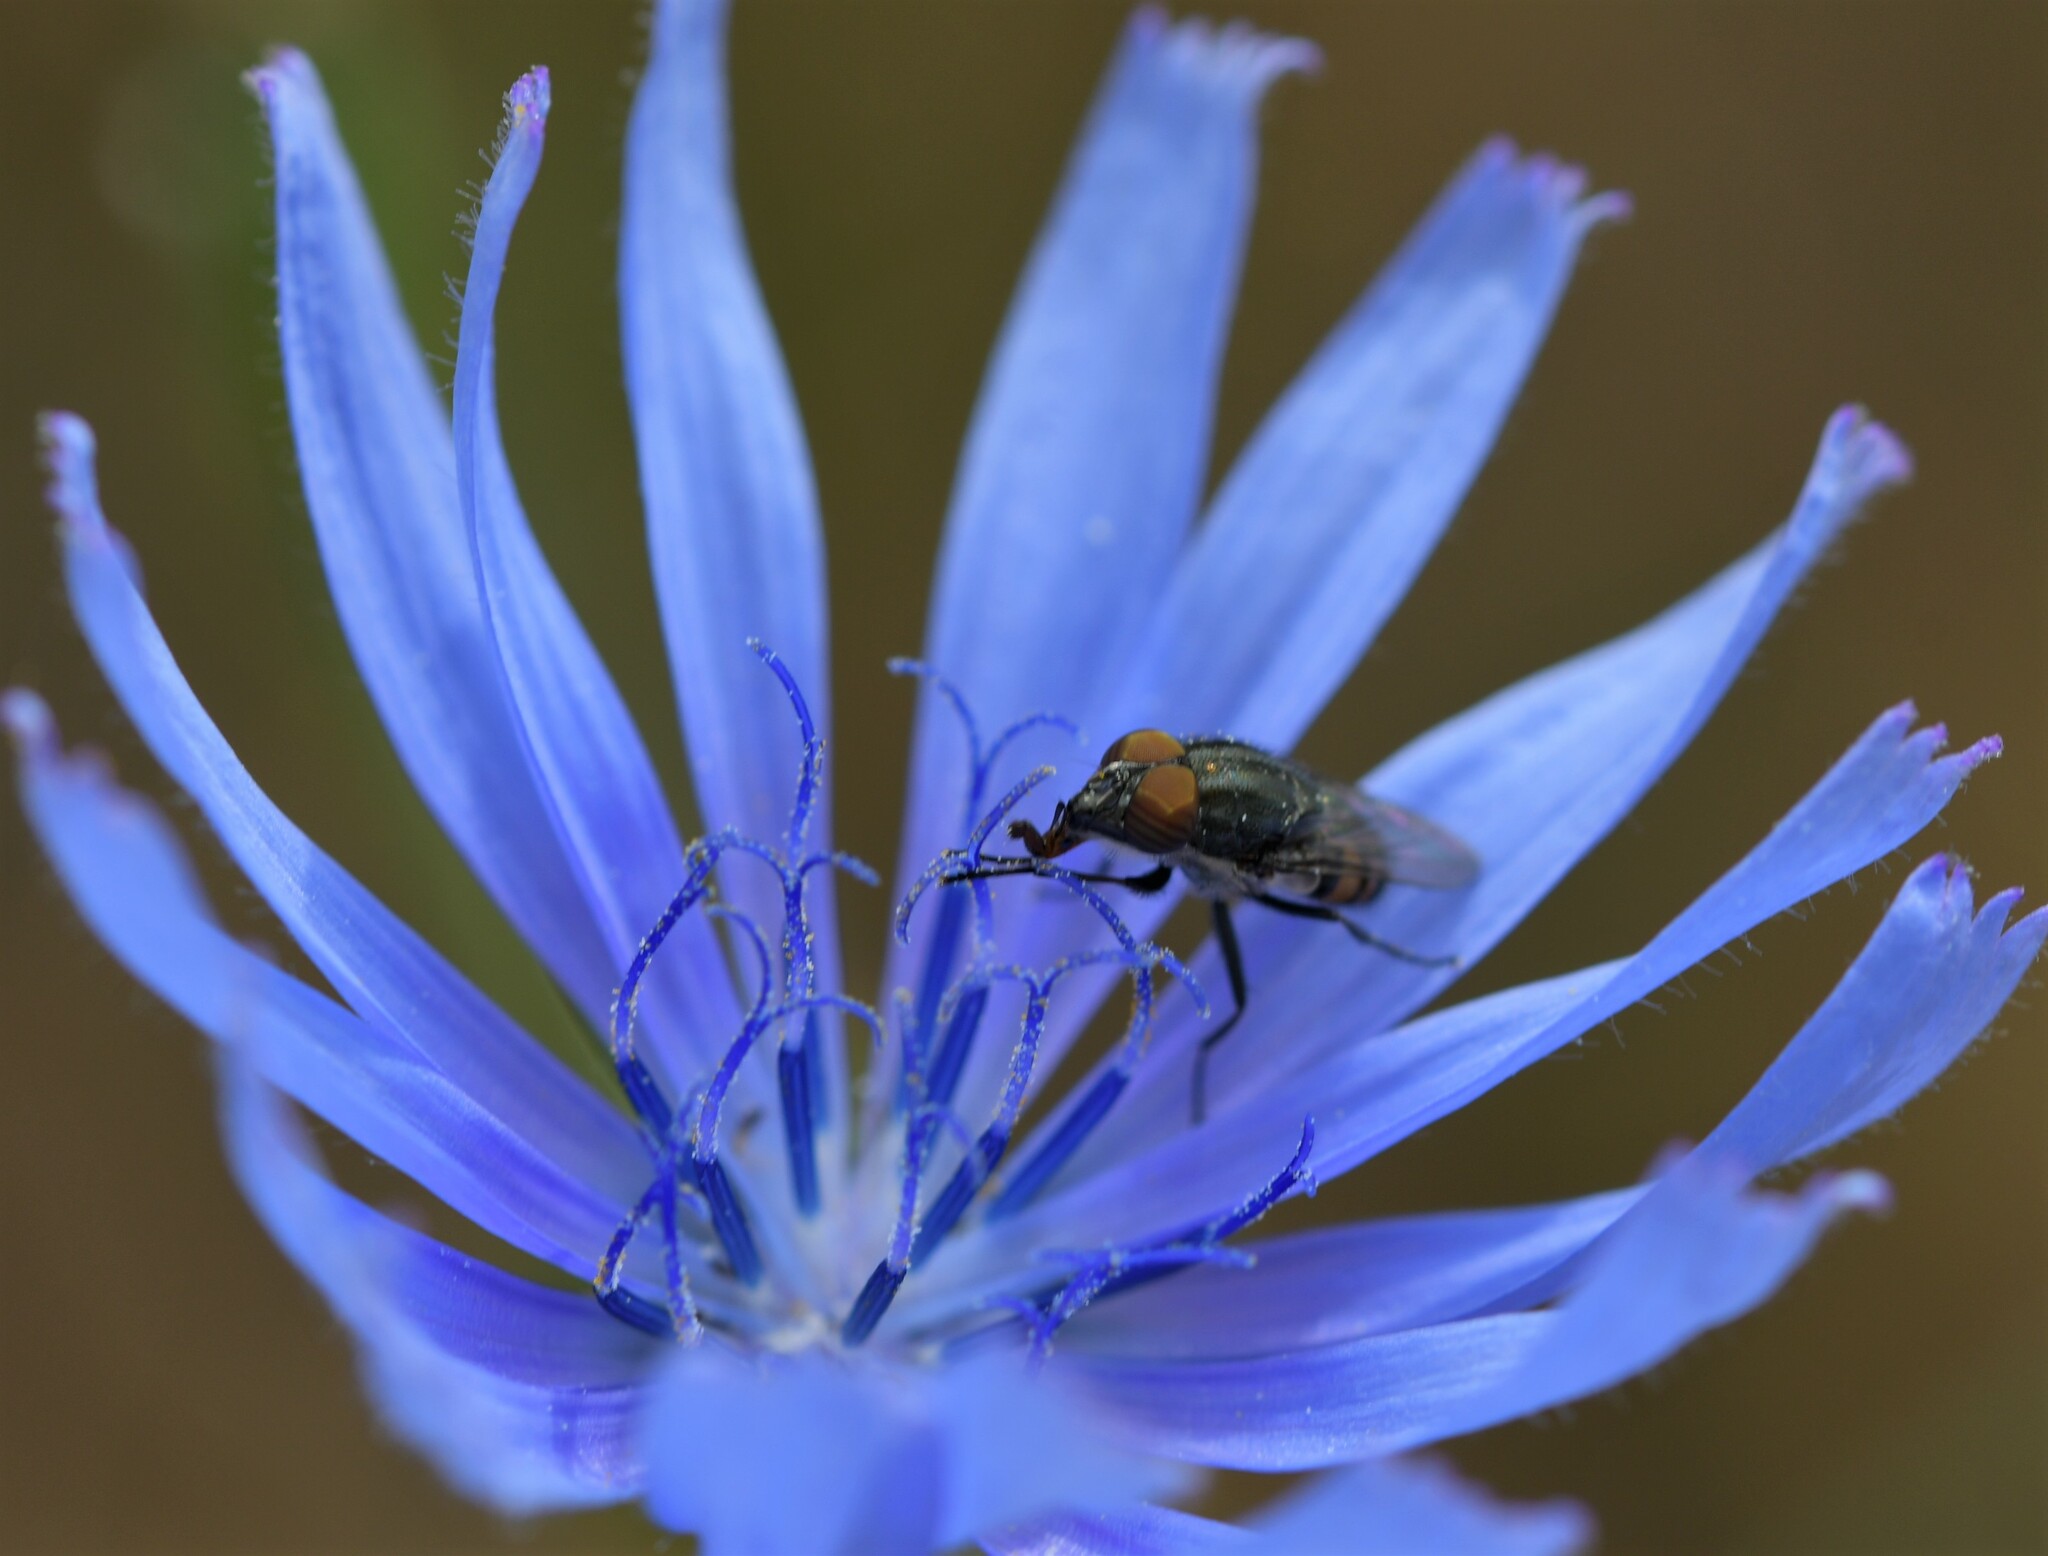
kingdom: Animalia
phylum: Arthropoda
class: Insecta
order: Diptera
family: Calliphoridae
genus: Stomorhina
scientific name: Stomorhina lunata
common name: Locust blowfly
